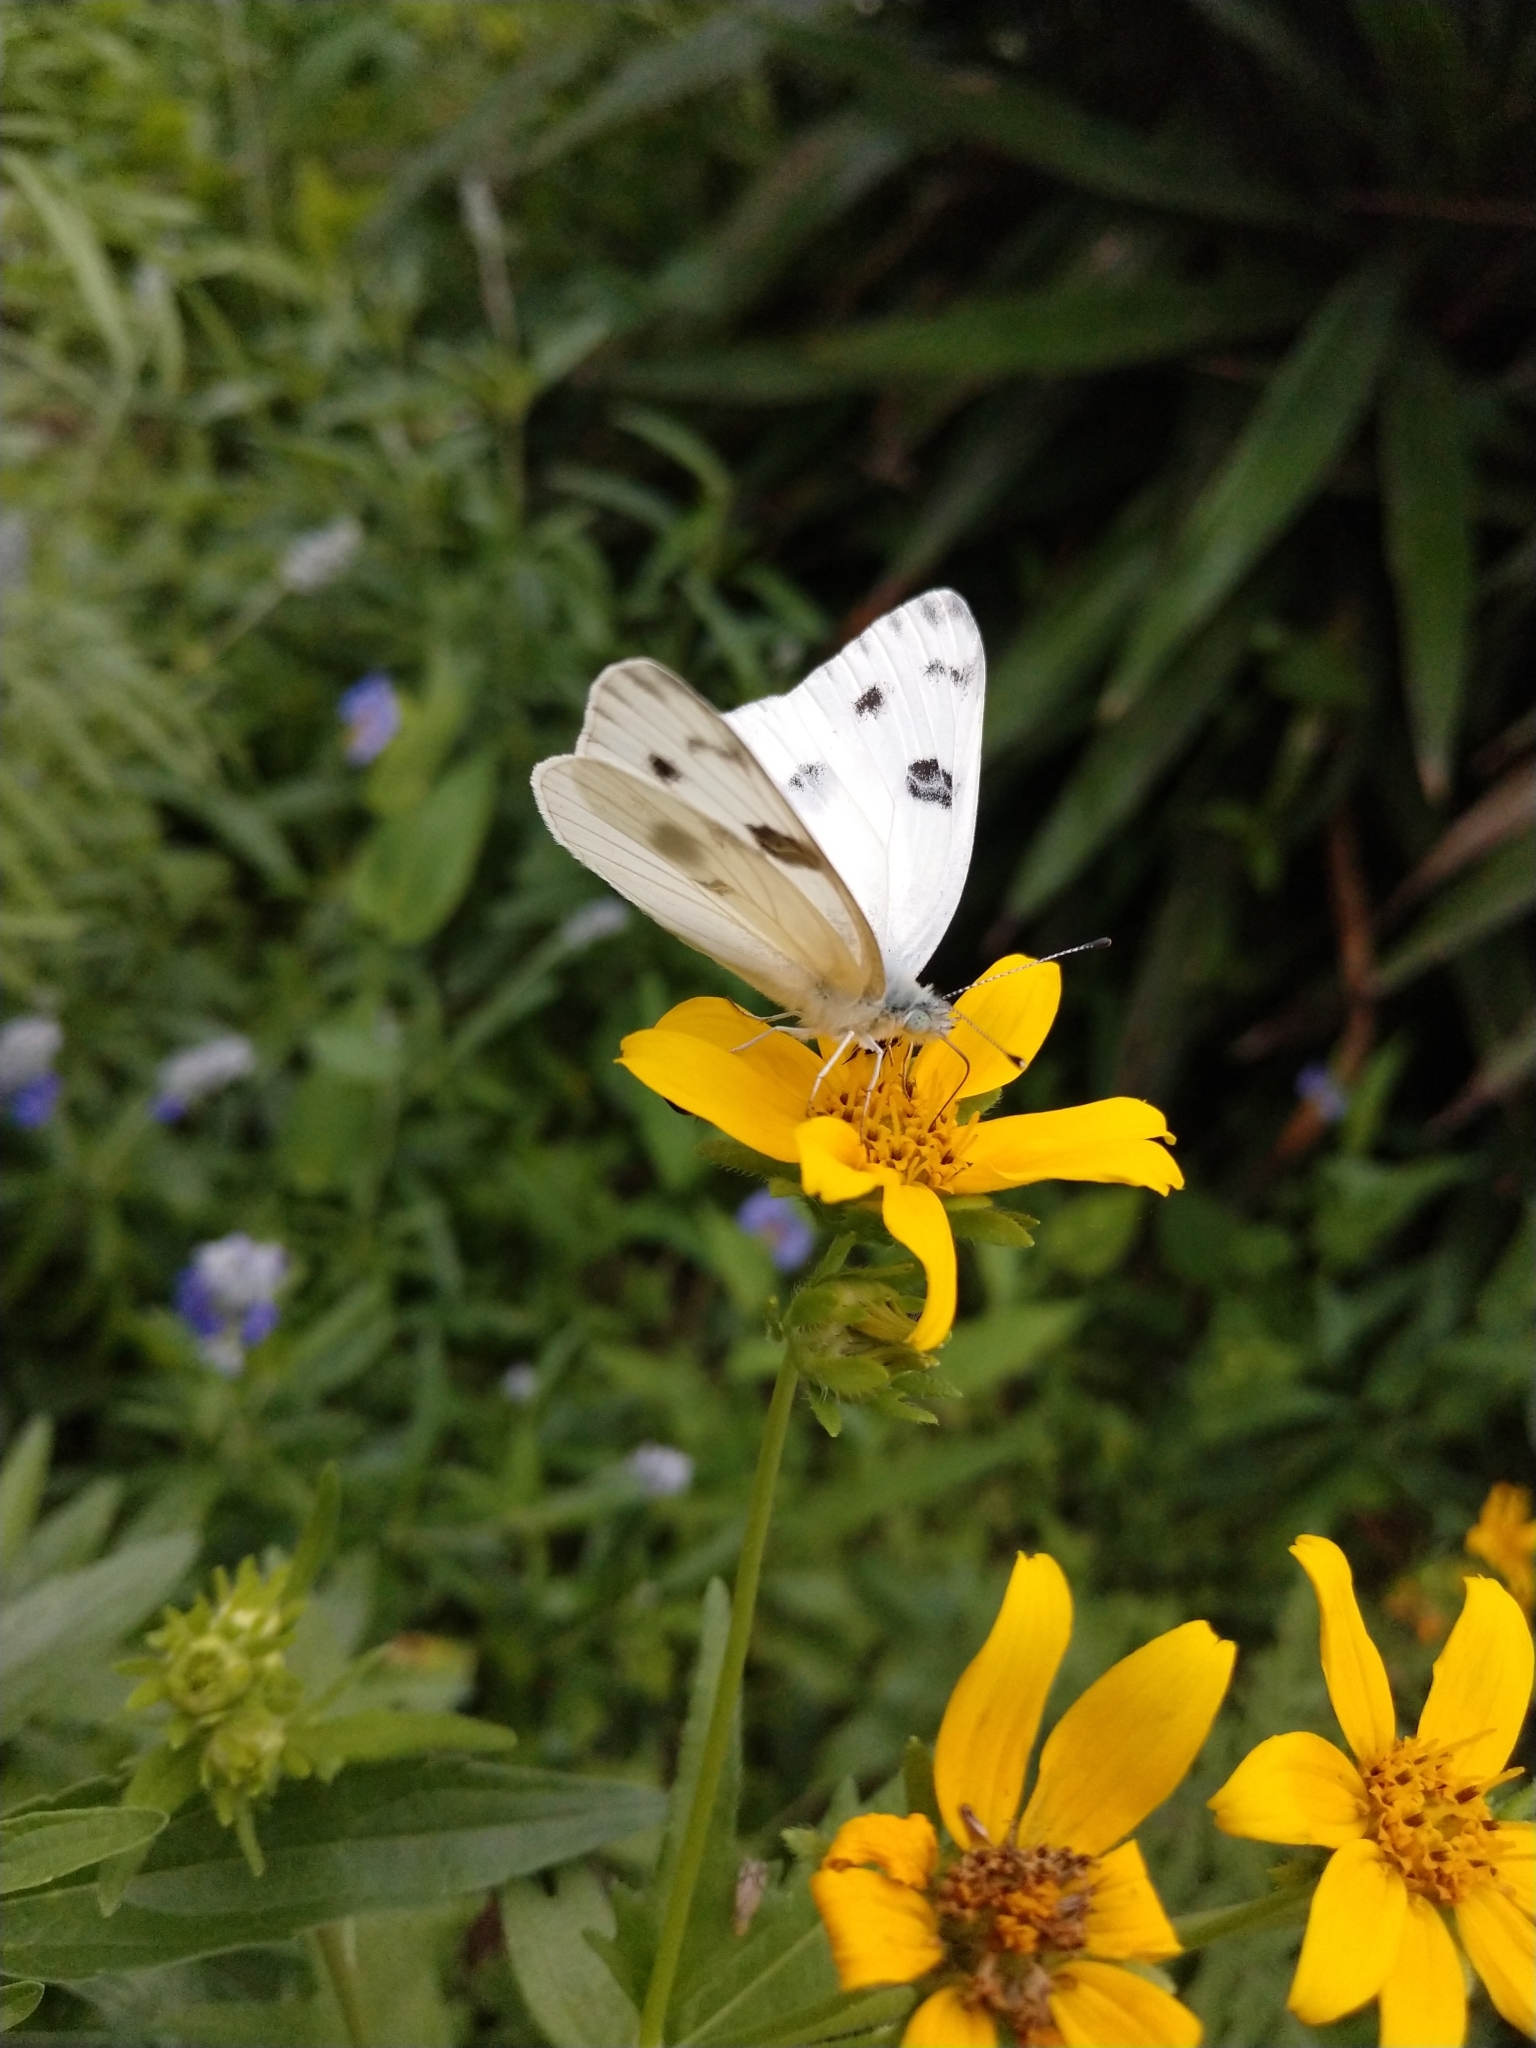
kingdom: Animalia
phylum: Arthropoda
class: Insecta
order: Lepidoptera
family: Pieridae
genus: Pontia
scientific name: Pontia protodice
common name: Checkered white
